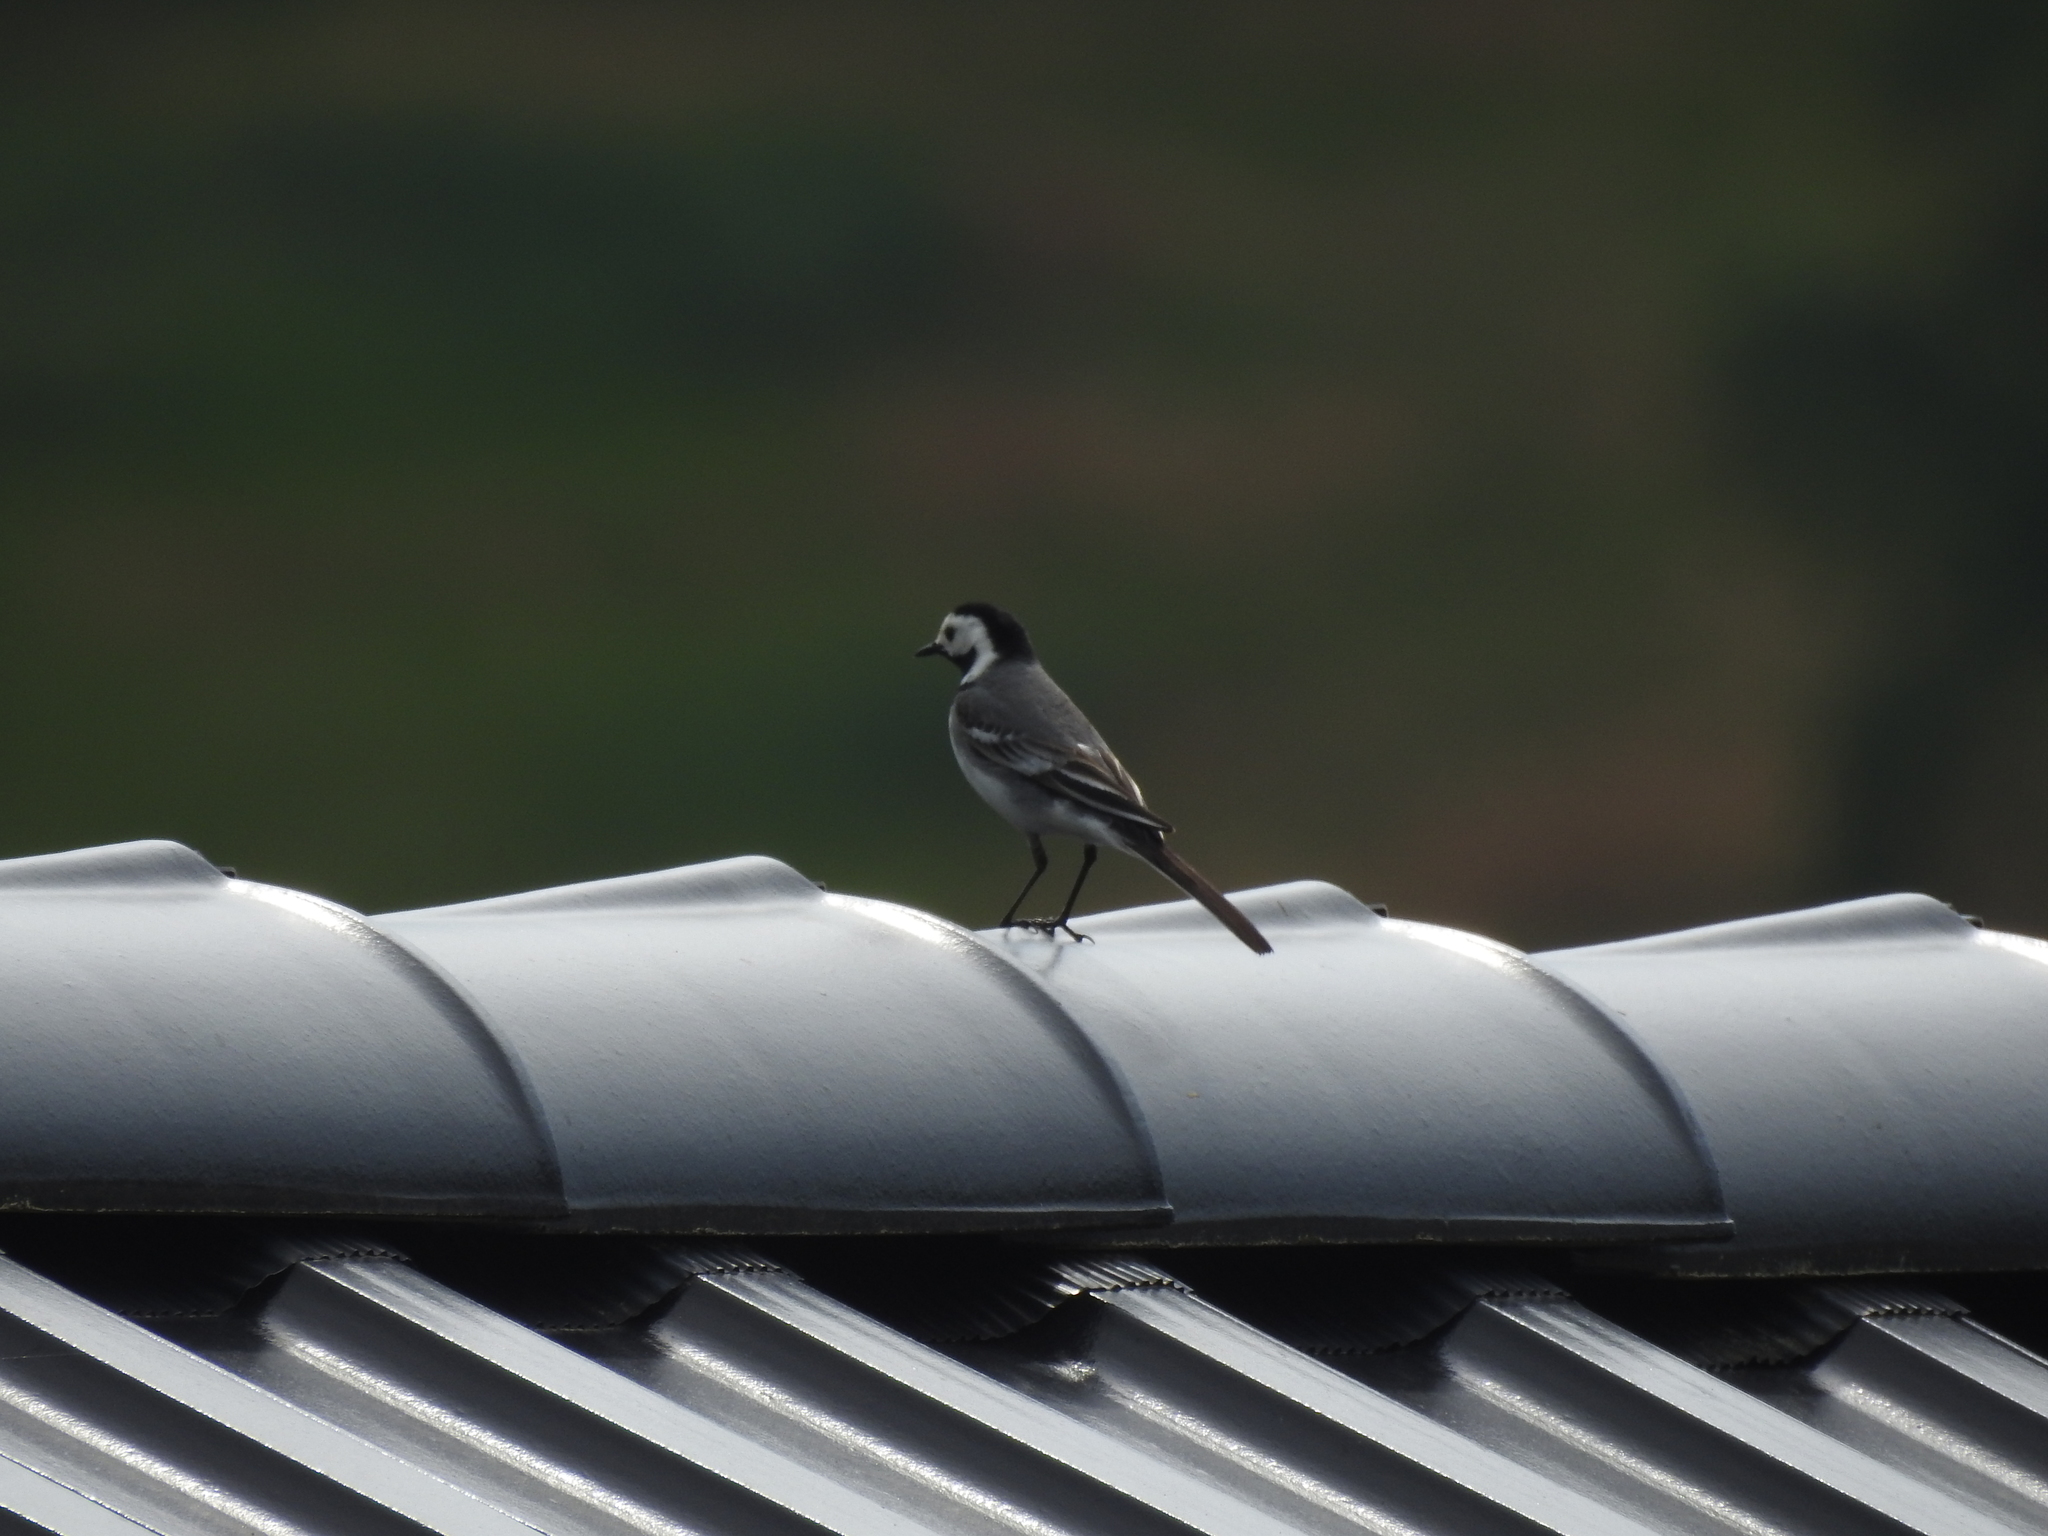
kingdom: Animalia
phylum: Chordata
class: Aves
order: Passeriformes
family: Motacillidae
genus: Motacilla
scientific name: Motacilla alba
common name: White wagtail
